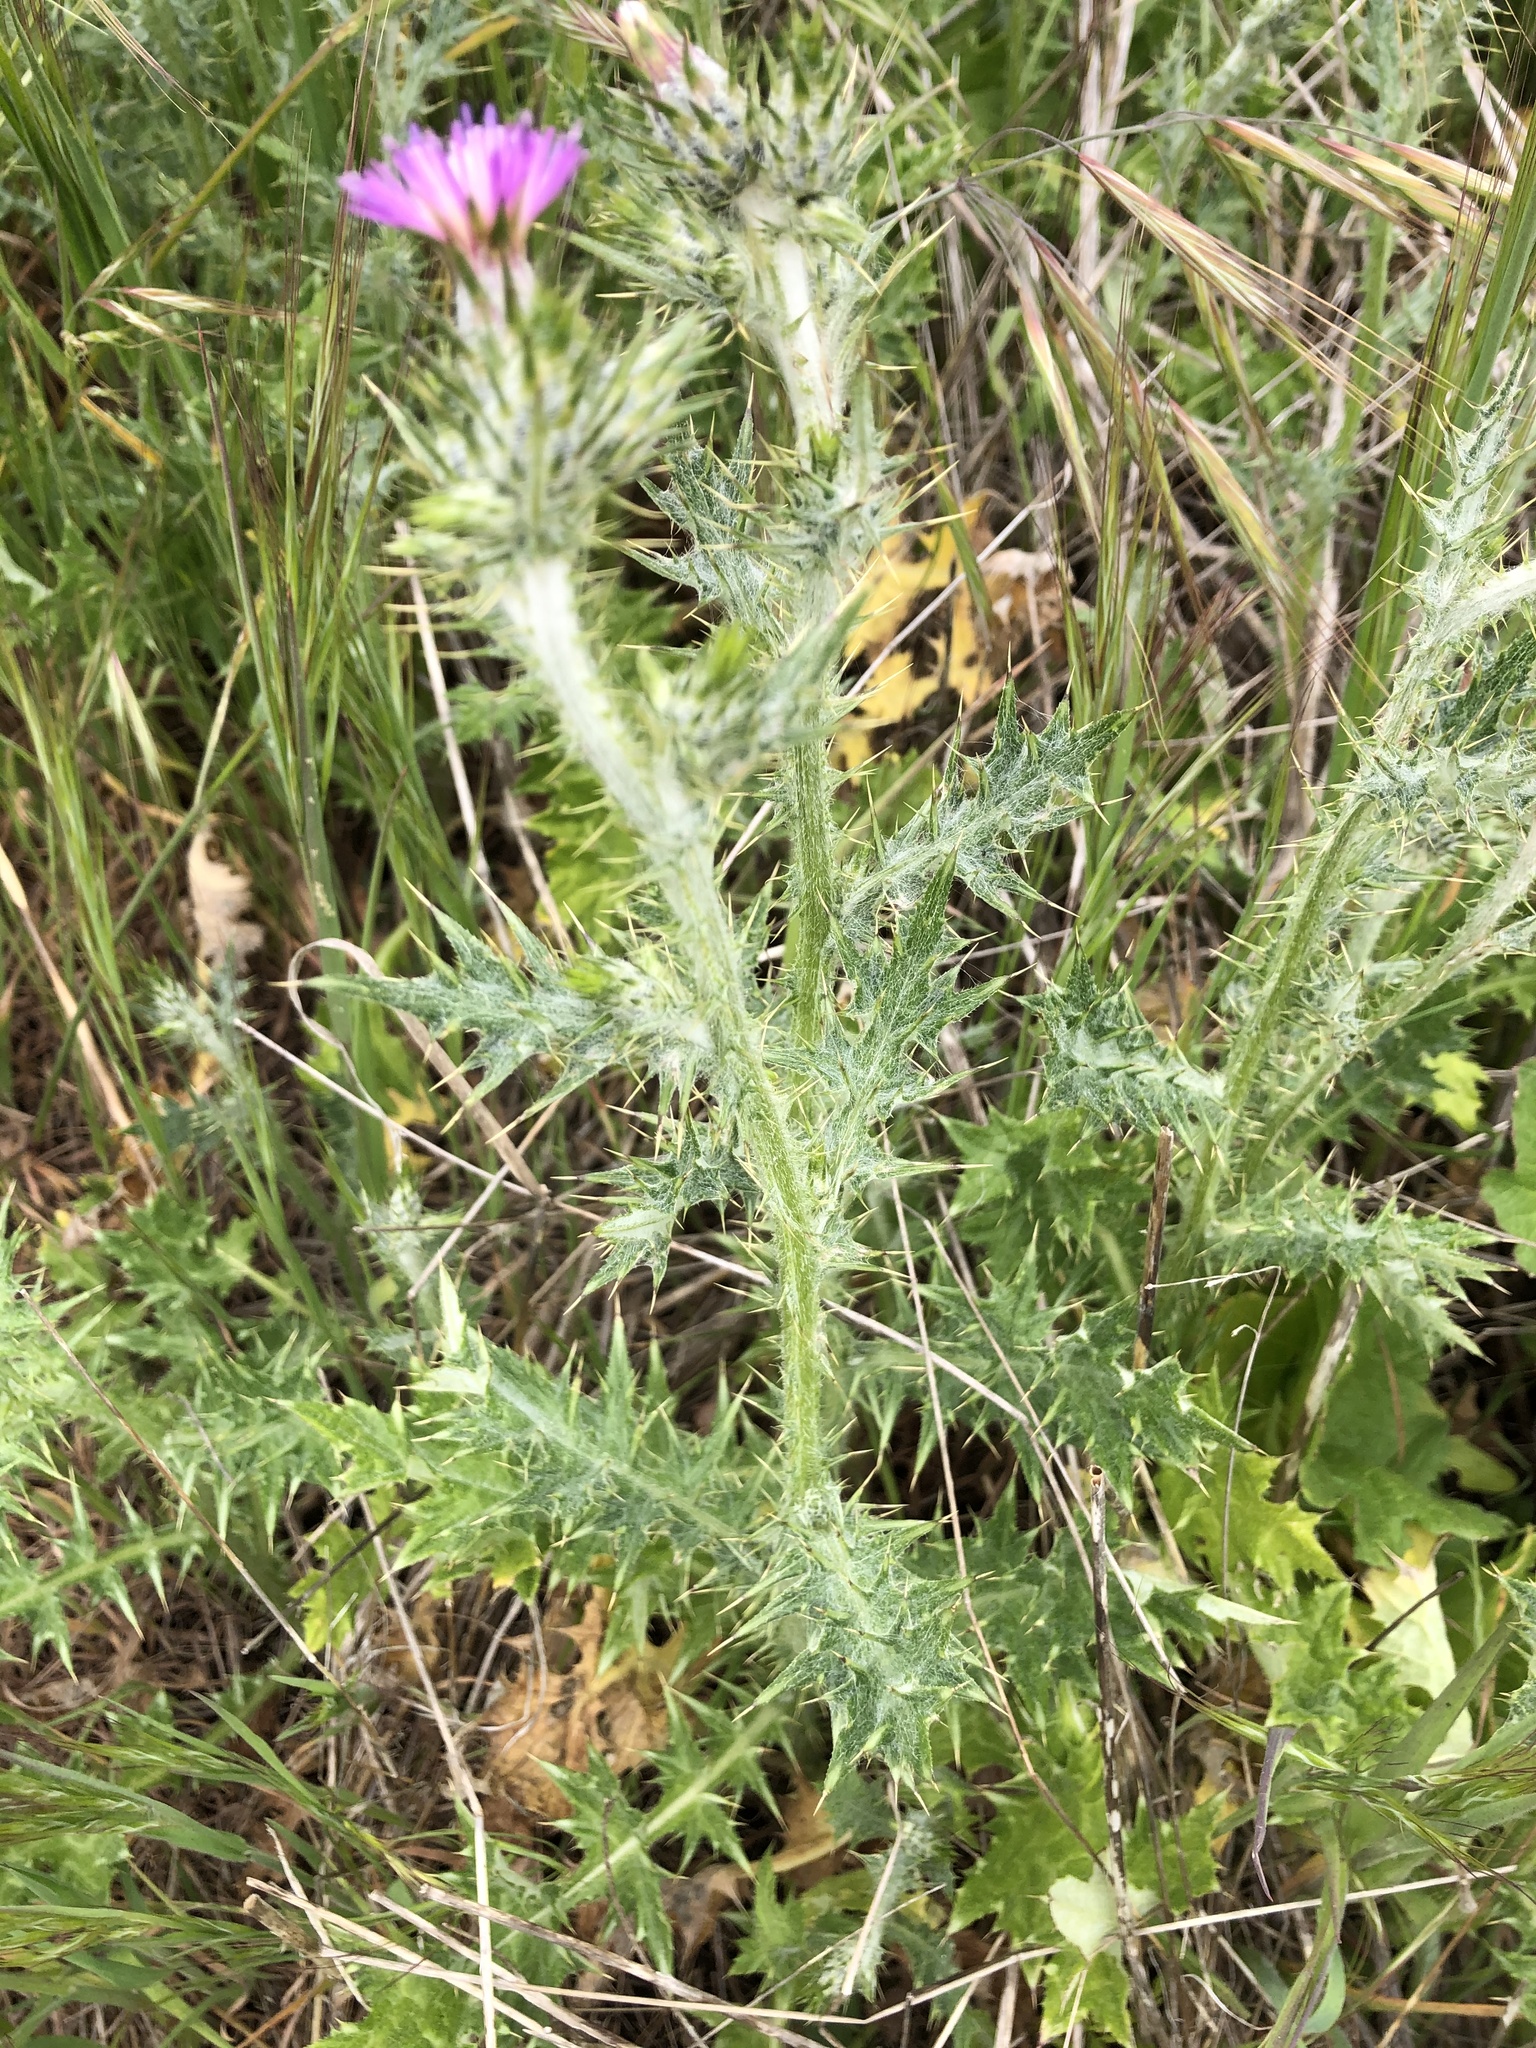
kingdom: Plantae
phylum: Tracheophyta
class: Magnoliopsida
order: Asterales
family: Asteraceae
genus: Carduus
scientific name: Carduus pycnocephalus
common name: Plymouth thistle
